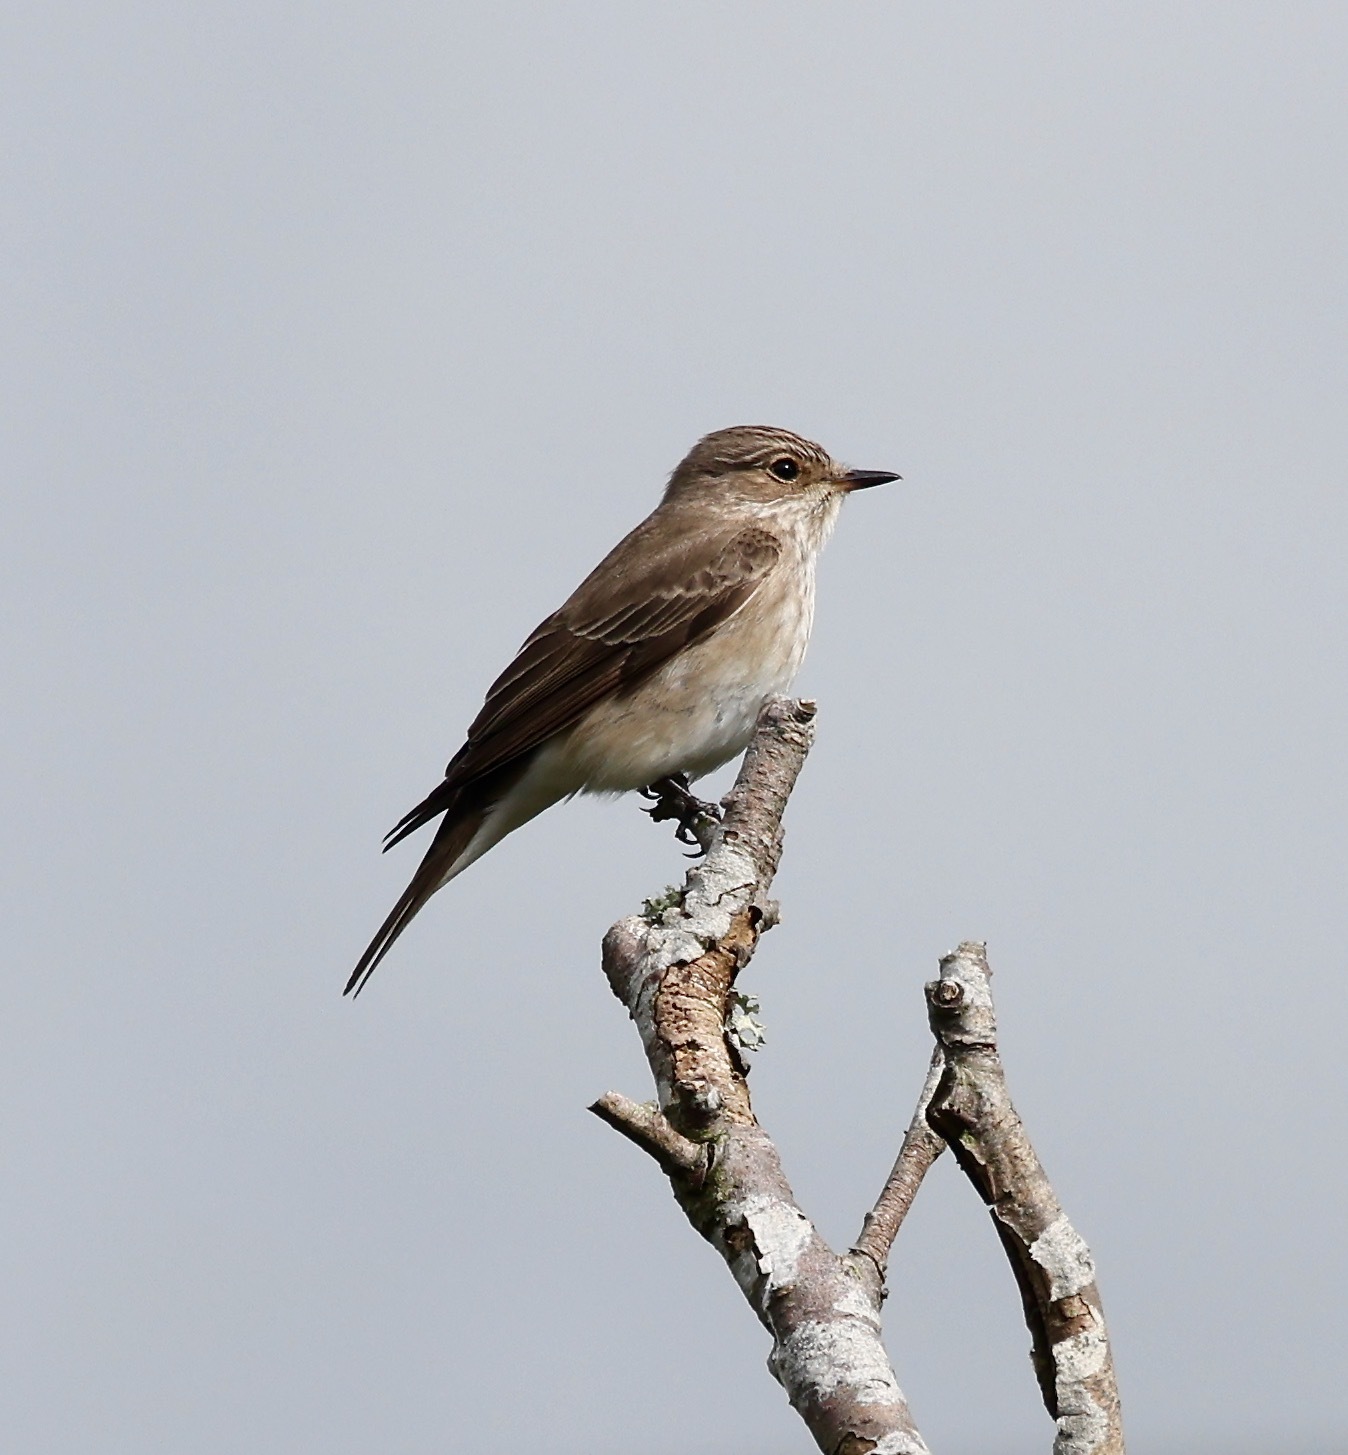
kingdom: Animalia
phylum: Chordata
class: Aves
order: Passeriformes
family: Muscicapidae
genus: Muscicapa
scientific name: Muscicapa striata
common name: Spotted flycatcher
